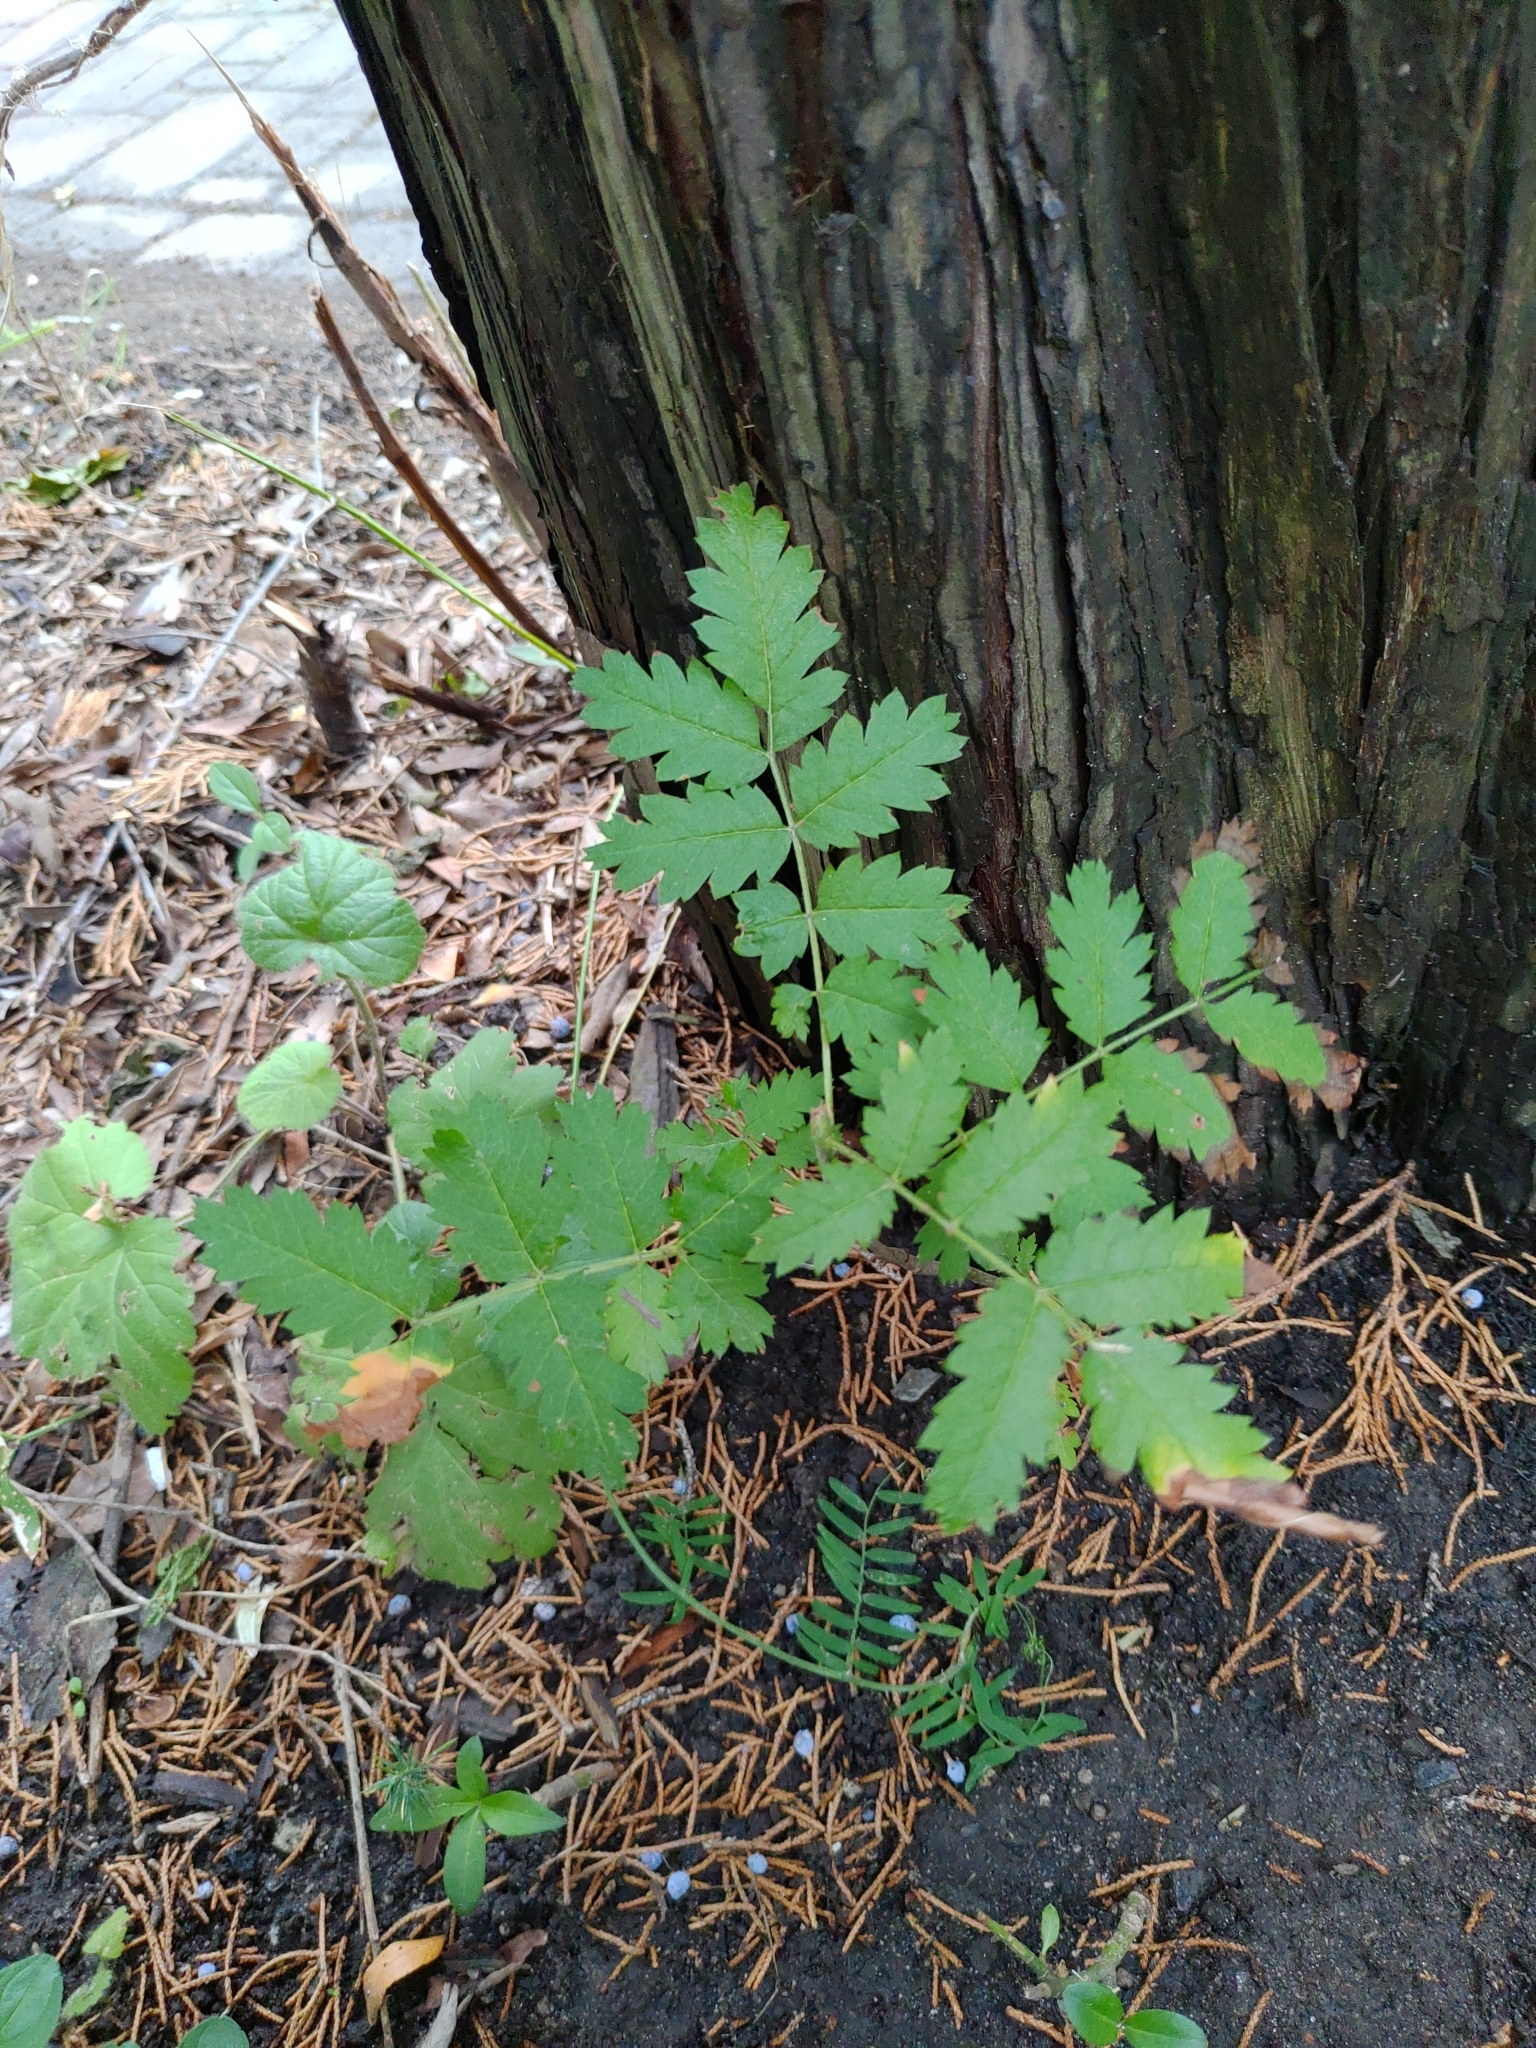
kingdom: Plantae
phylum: Tracheophyta
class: Magnoliopsida
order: Rosales
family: Rosaceae
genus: Sorbus
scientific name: Sorbus decora
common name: Northern mountain-ash
